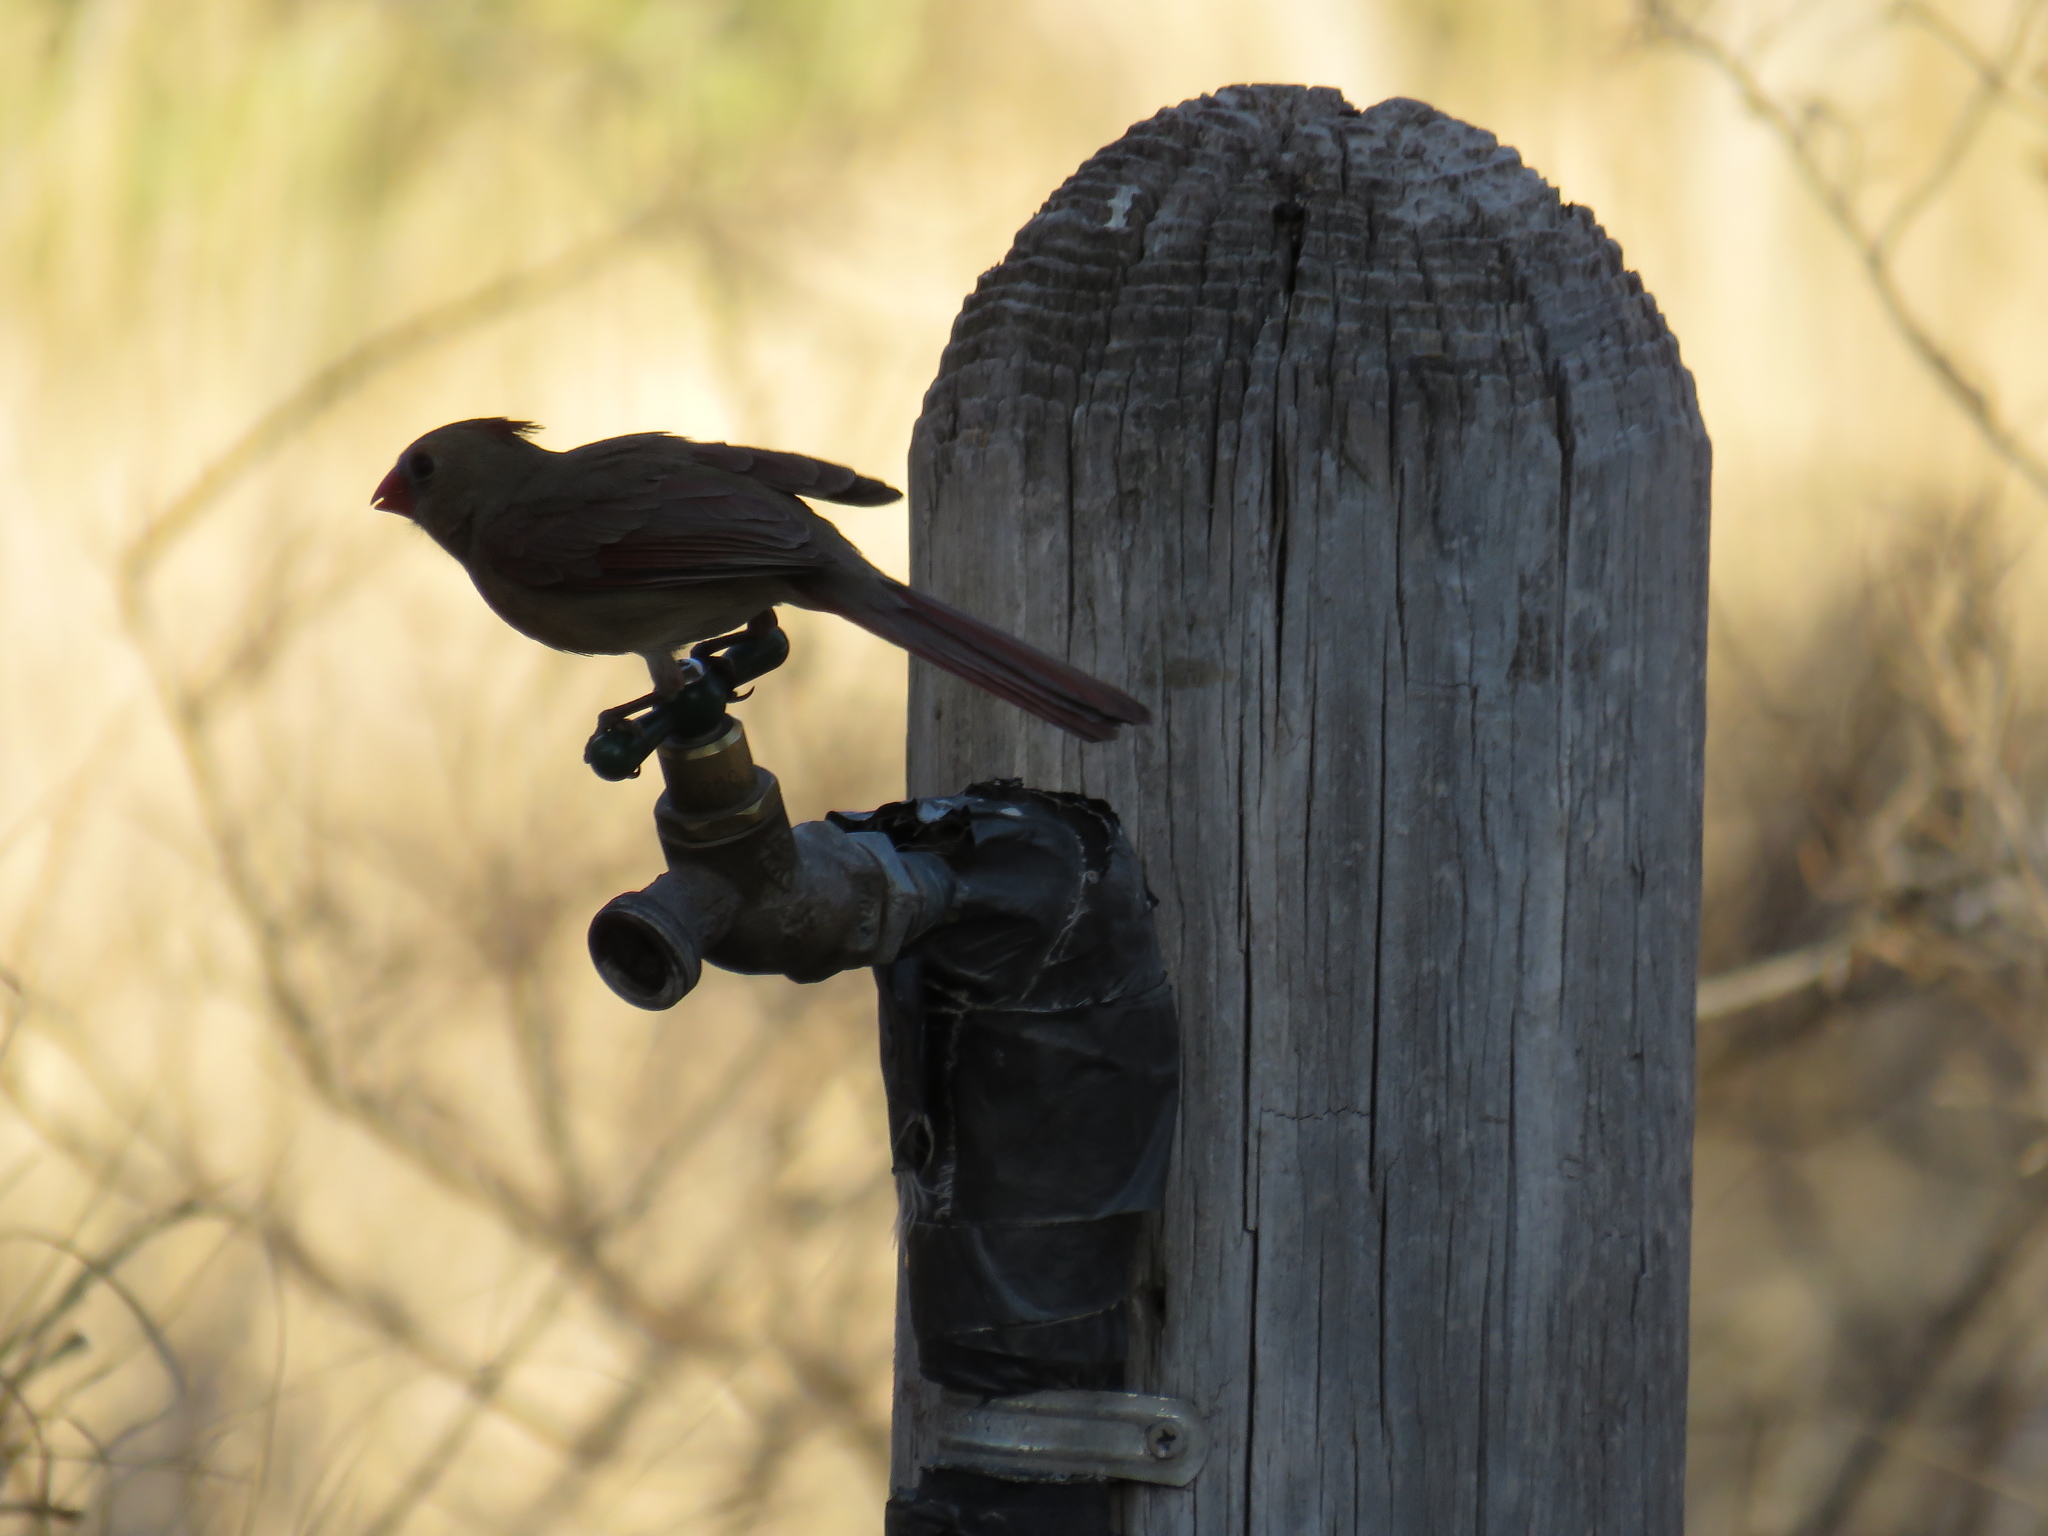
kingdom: Animalia
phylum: Chordata
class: Aves
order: Passeriformes
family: Cardinalidae
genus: Cardinalis
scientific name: Cardinalis cardinalis
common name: Northern cardinal
